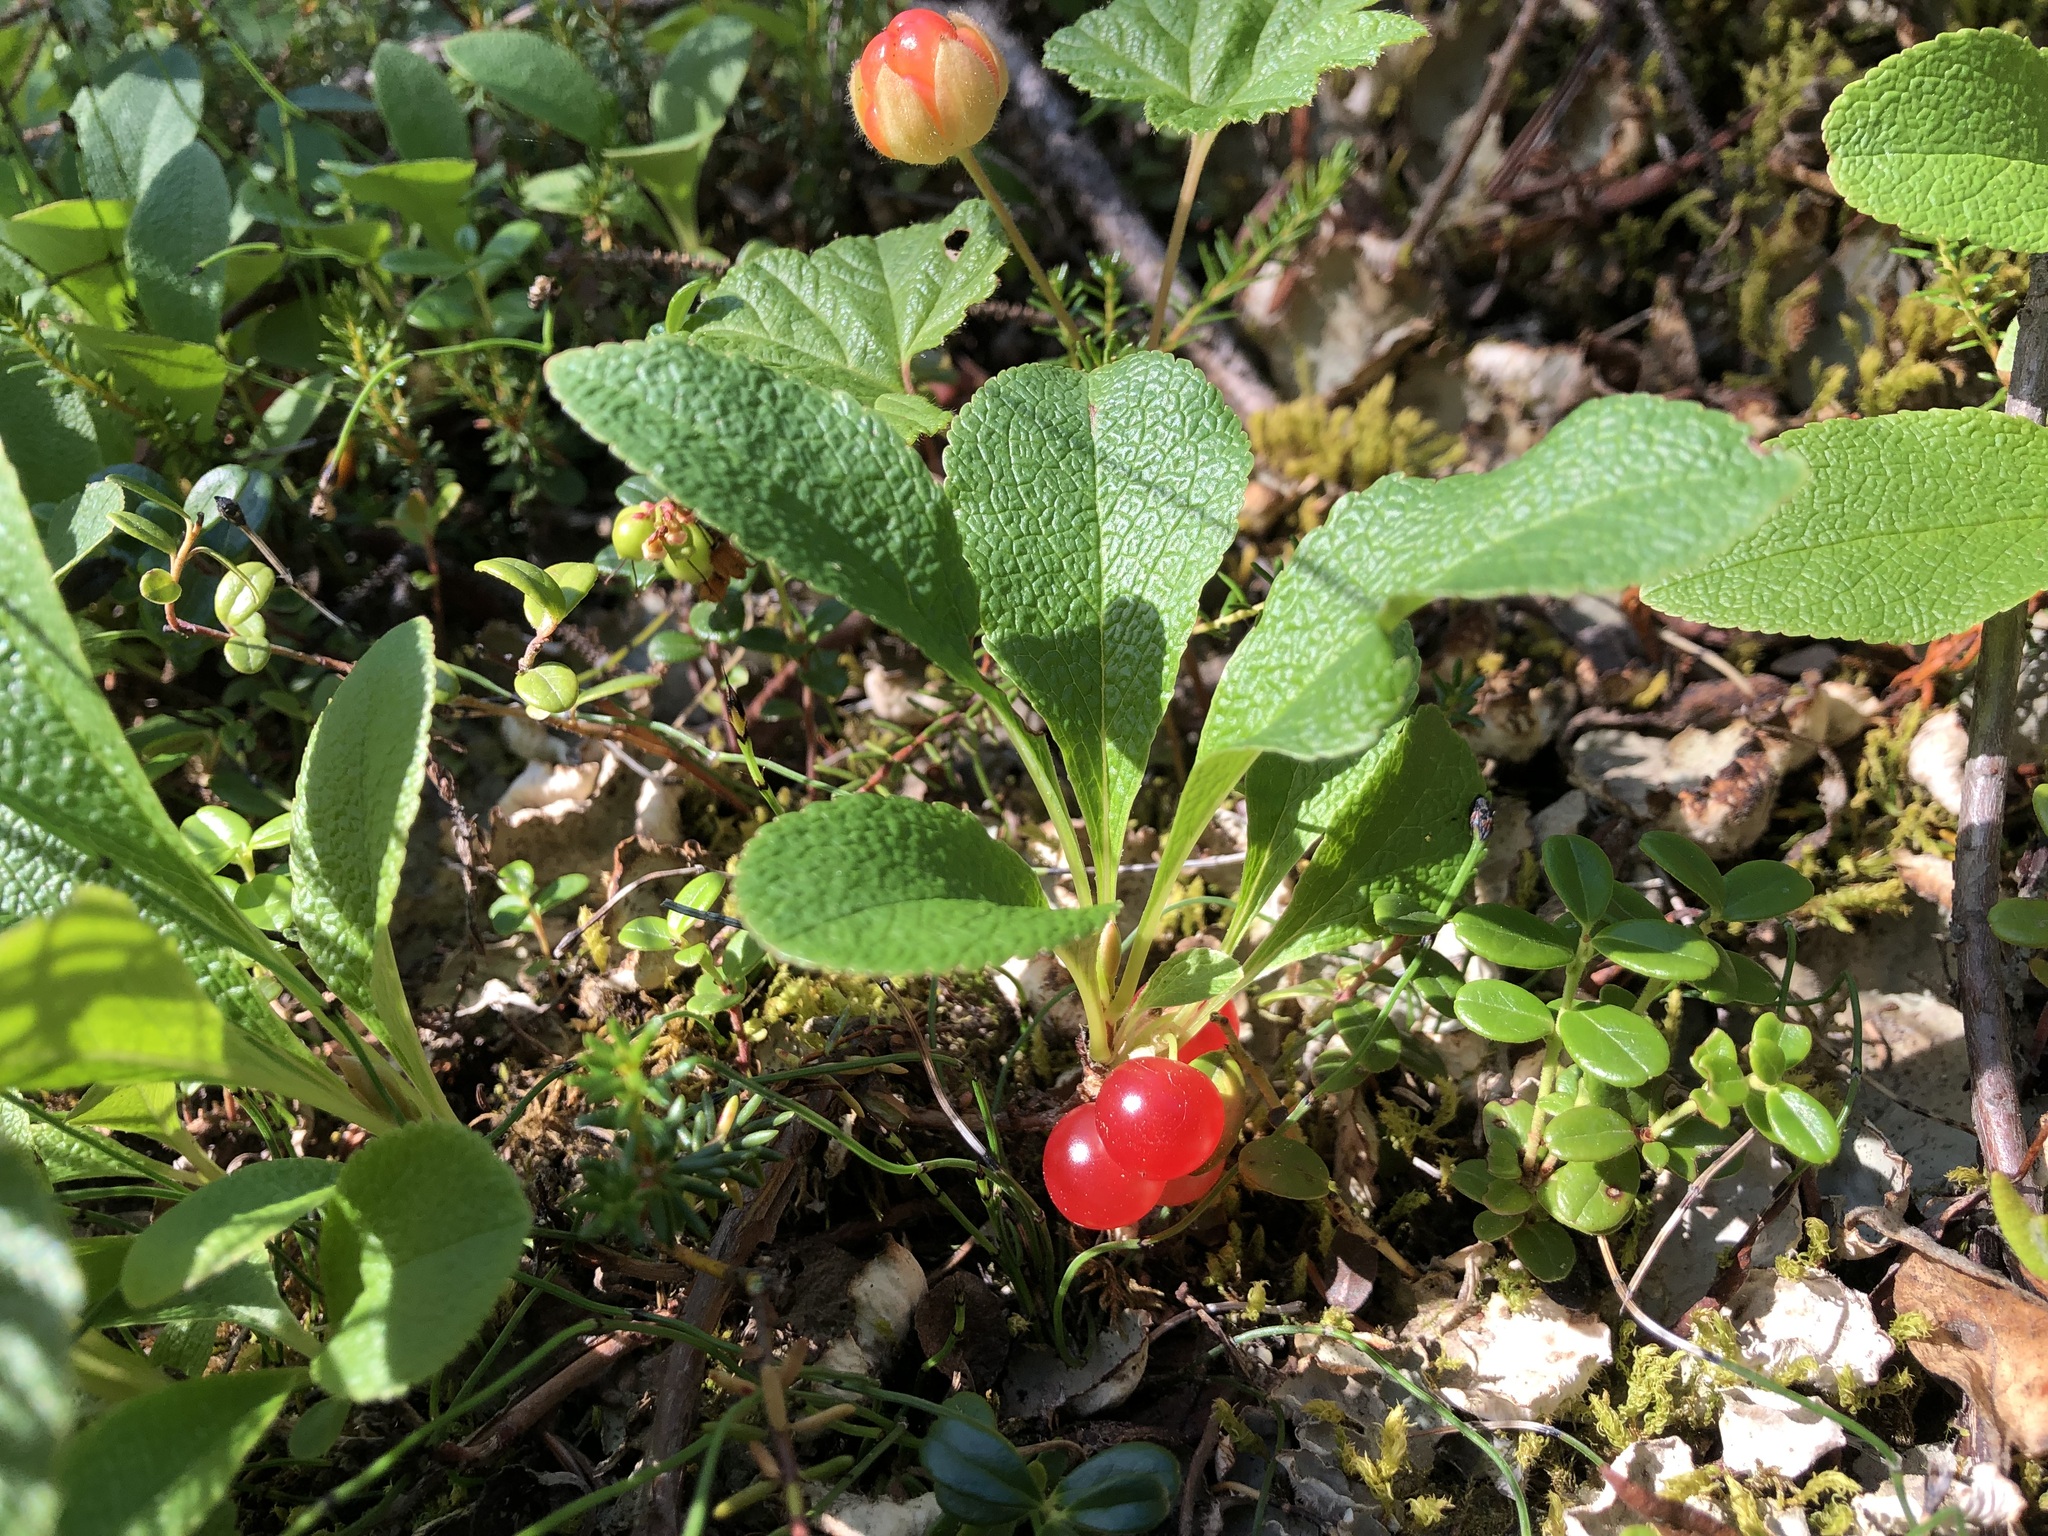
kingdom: Plantae
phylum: Tracheophyta
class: Magnoliopsida
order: Ericales
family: Ericaceae
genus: Arctostaphylos
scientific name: Arctostaphylos rubra
